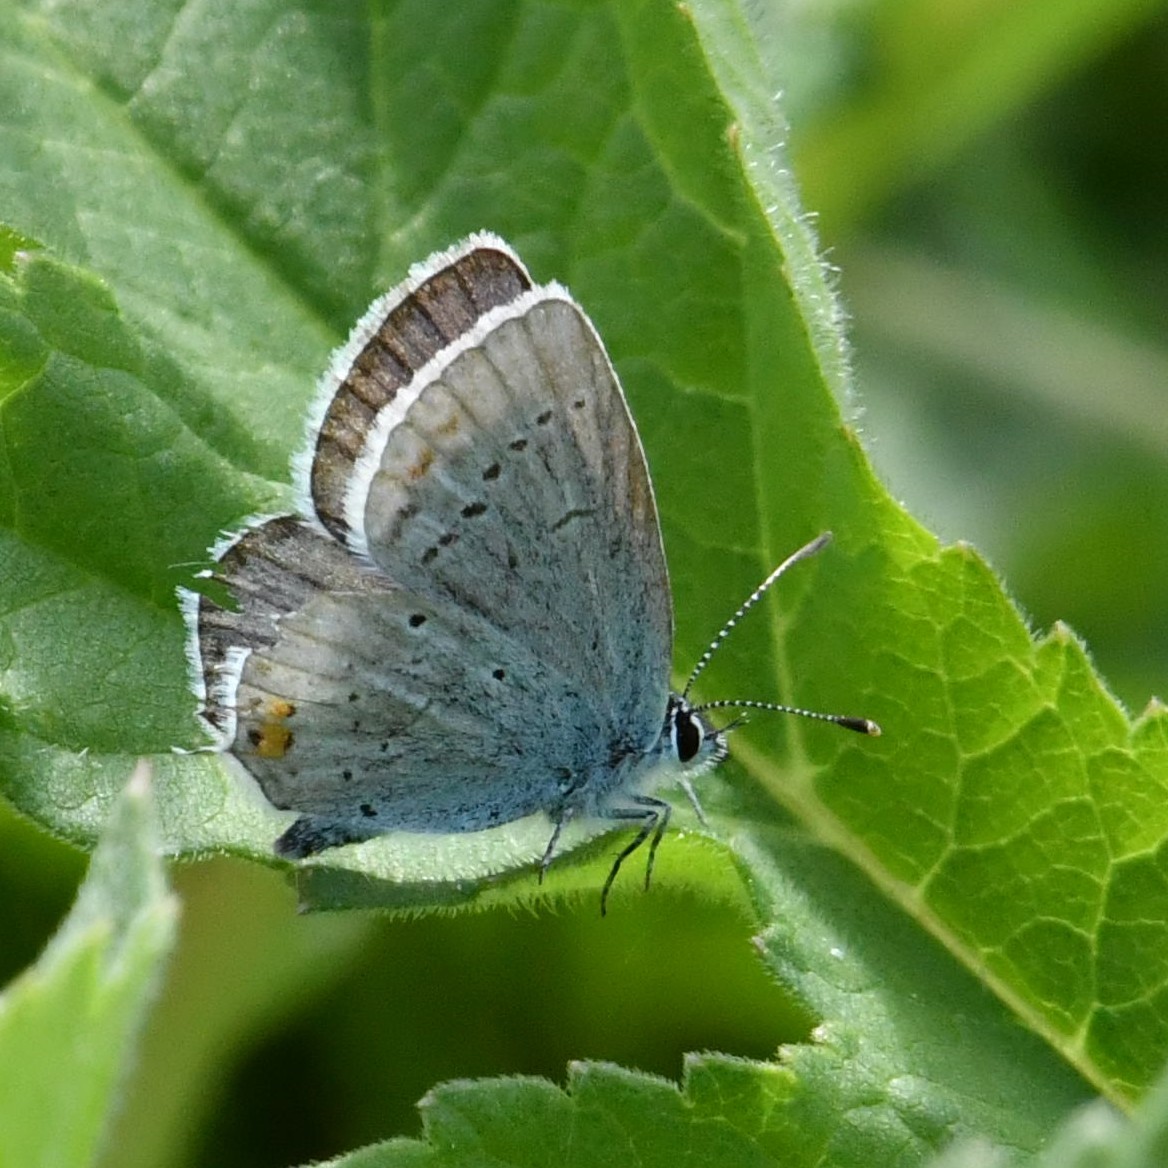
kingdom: Animalia
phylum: Arthropoda
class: Insecta
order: Lepidoptera
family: Lycaenidae
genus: Elkalyce
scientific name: Elkalyce argiades
